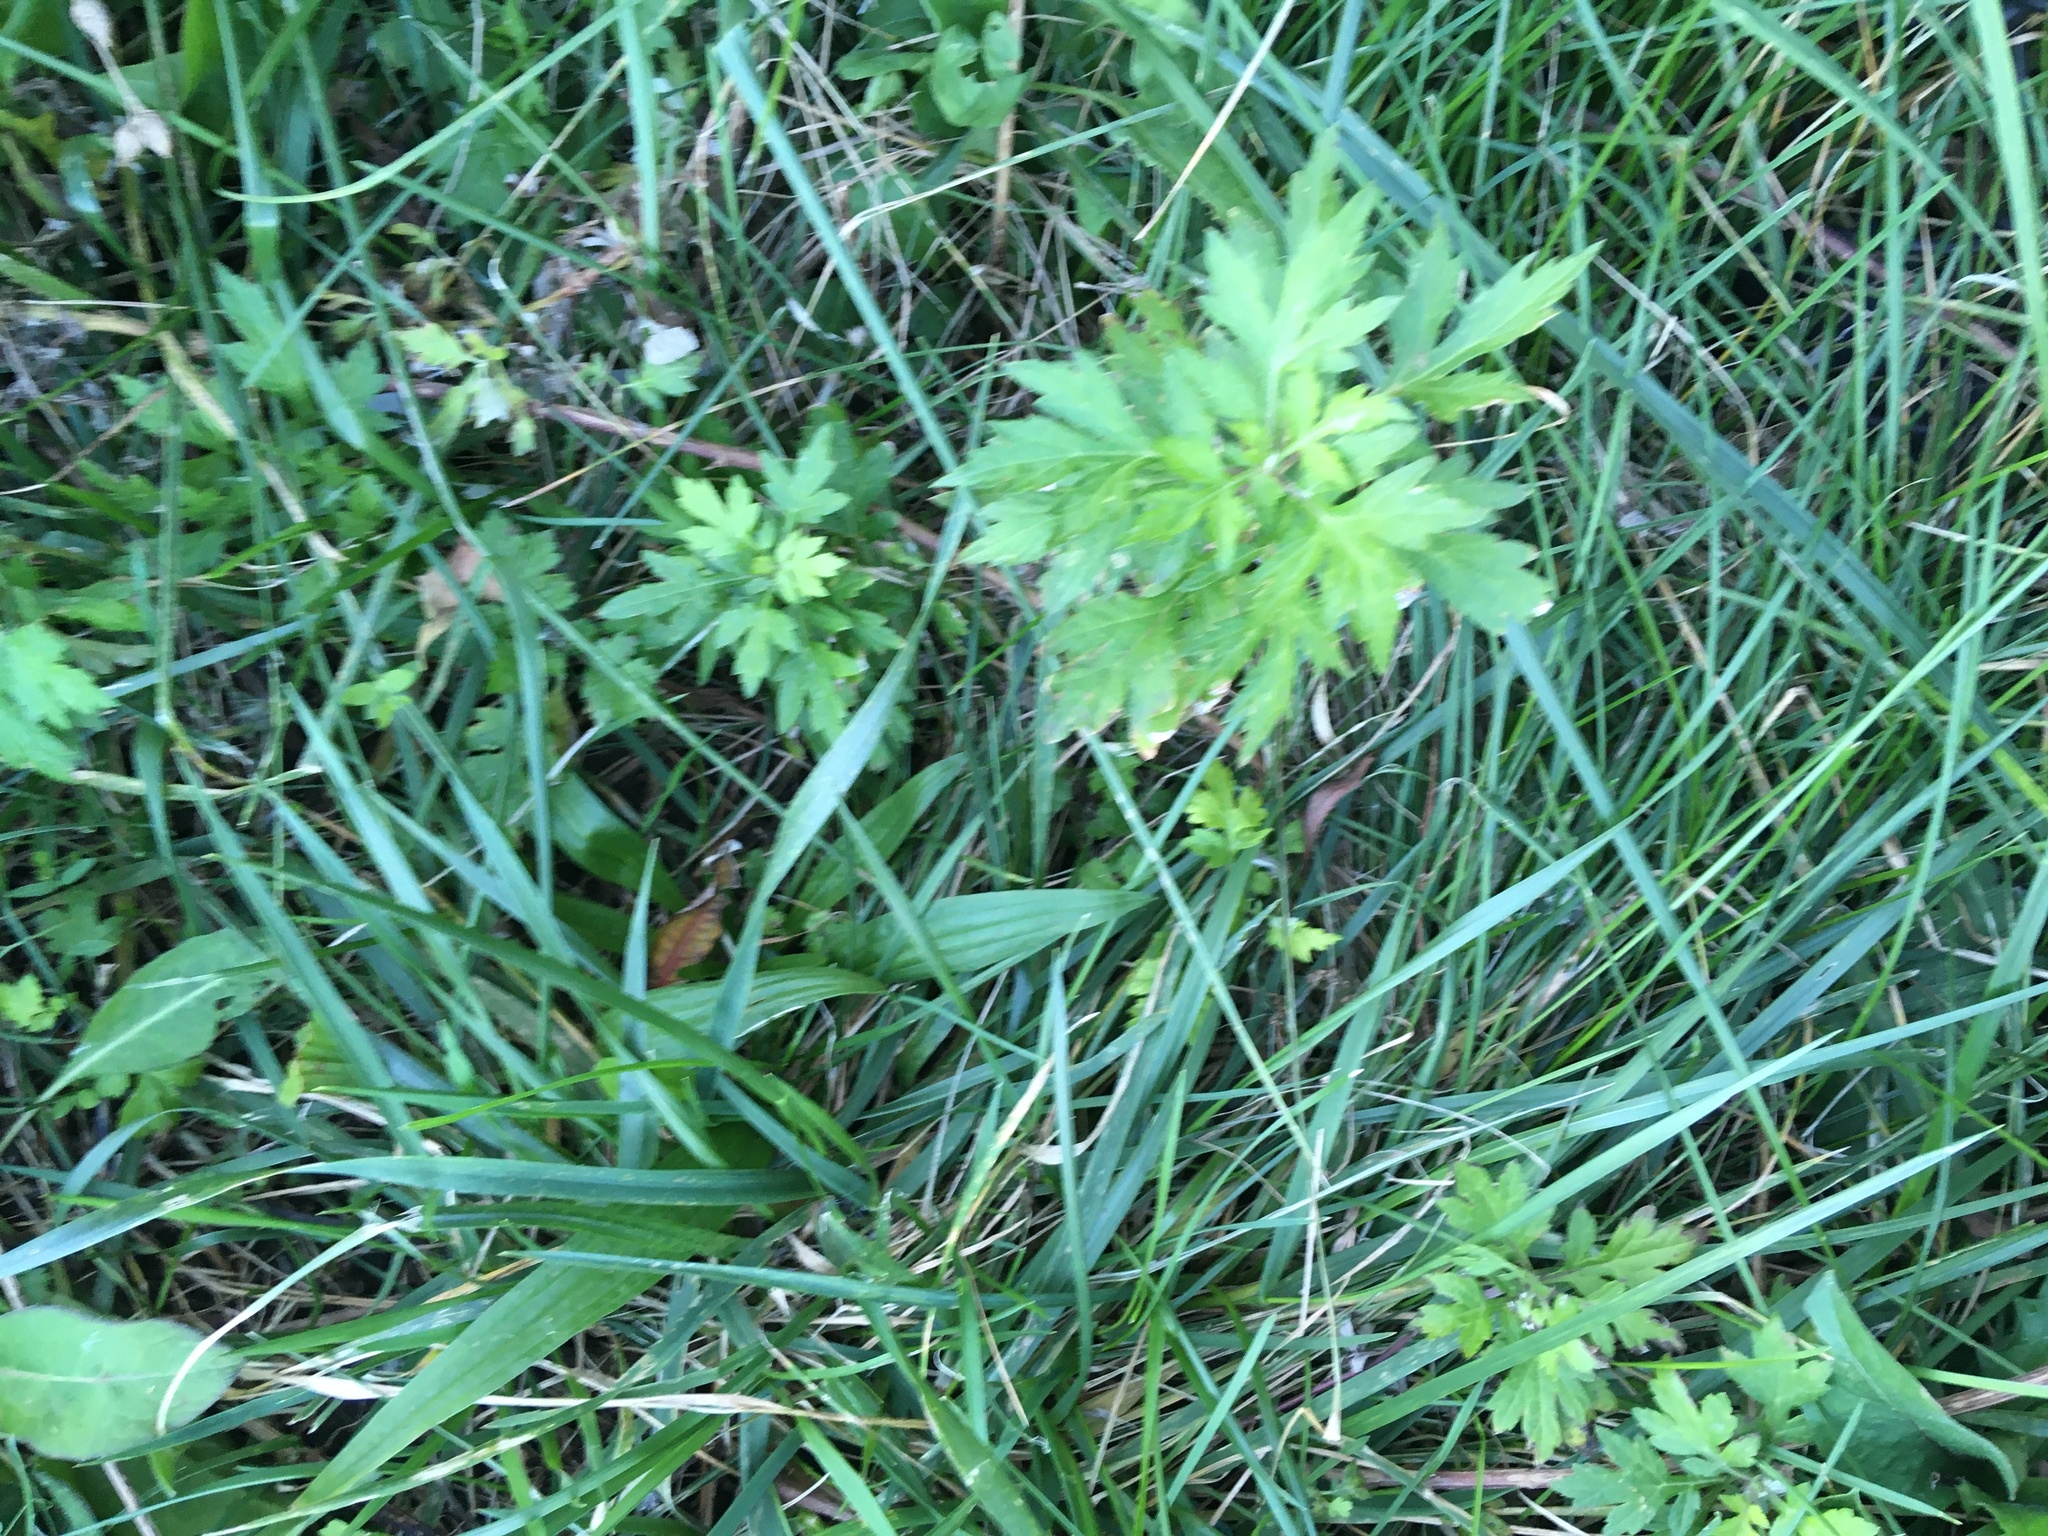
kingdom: Plantae
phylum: Tracheophyta
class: Magnoliopsida
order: Asterales
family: Asteraceae
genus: Artemisia
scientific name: Artemisia vulgaris
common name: Mugwort
